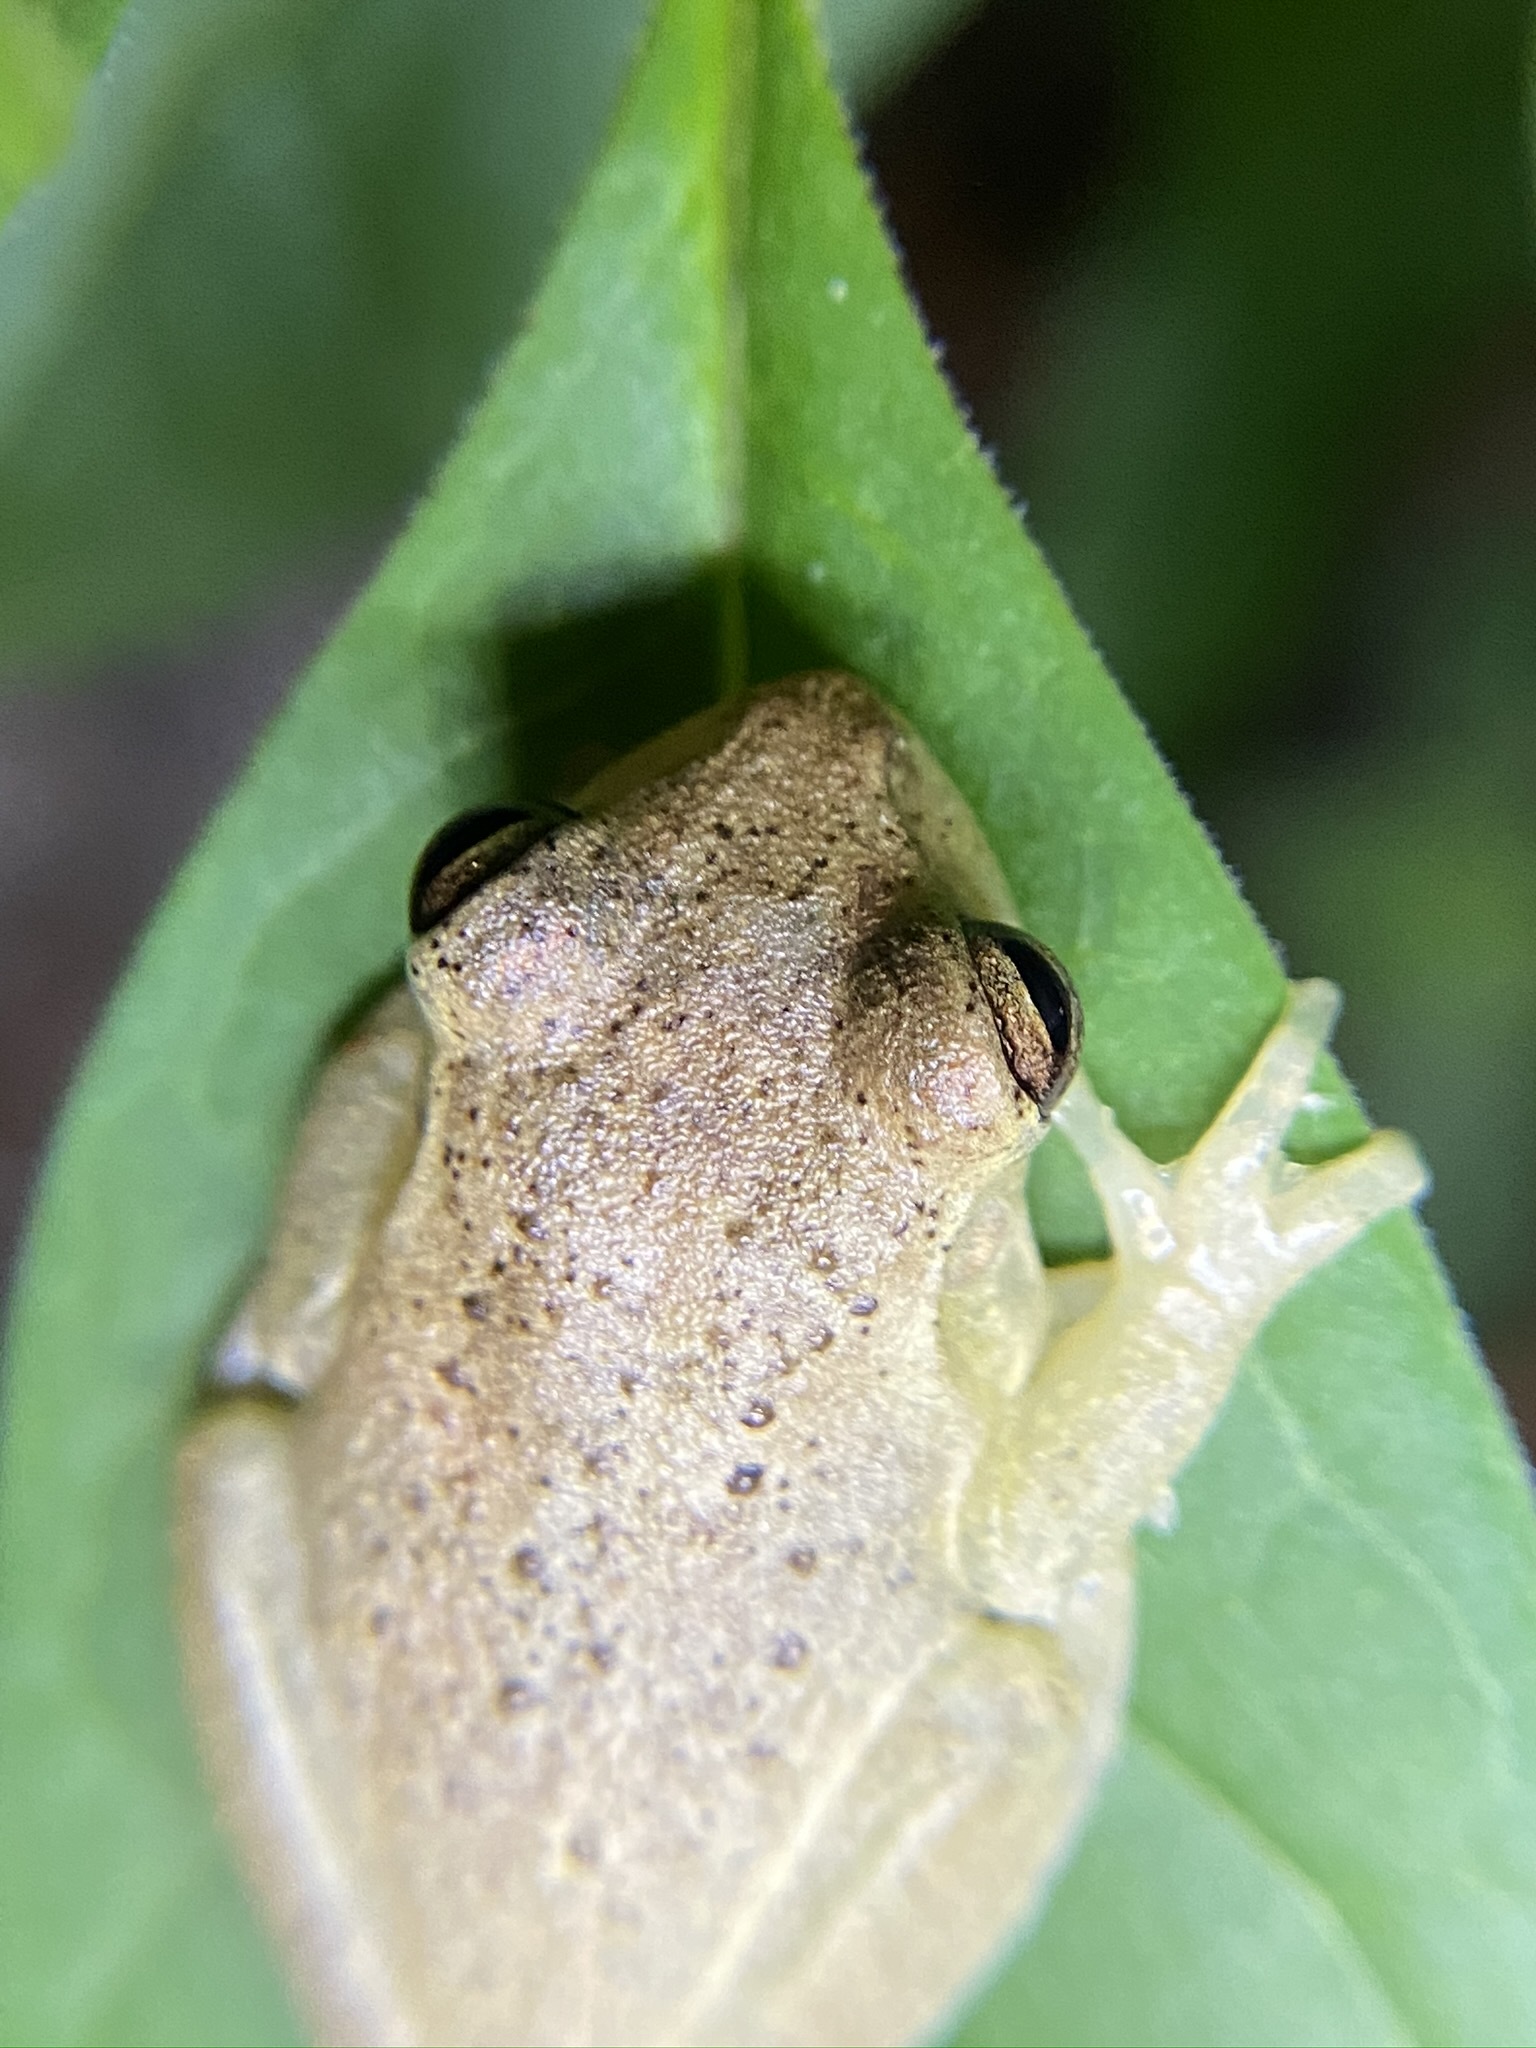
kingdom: Animalia
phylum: Chordata
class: Amphibia
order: Anura
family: Hylidae
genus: Osteopilus
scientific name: Osteopilus septentrionalis
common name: Cuban treefrog
